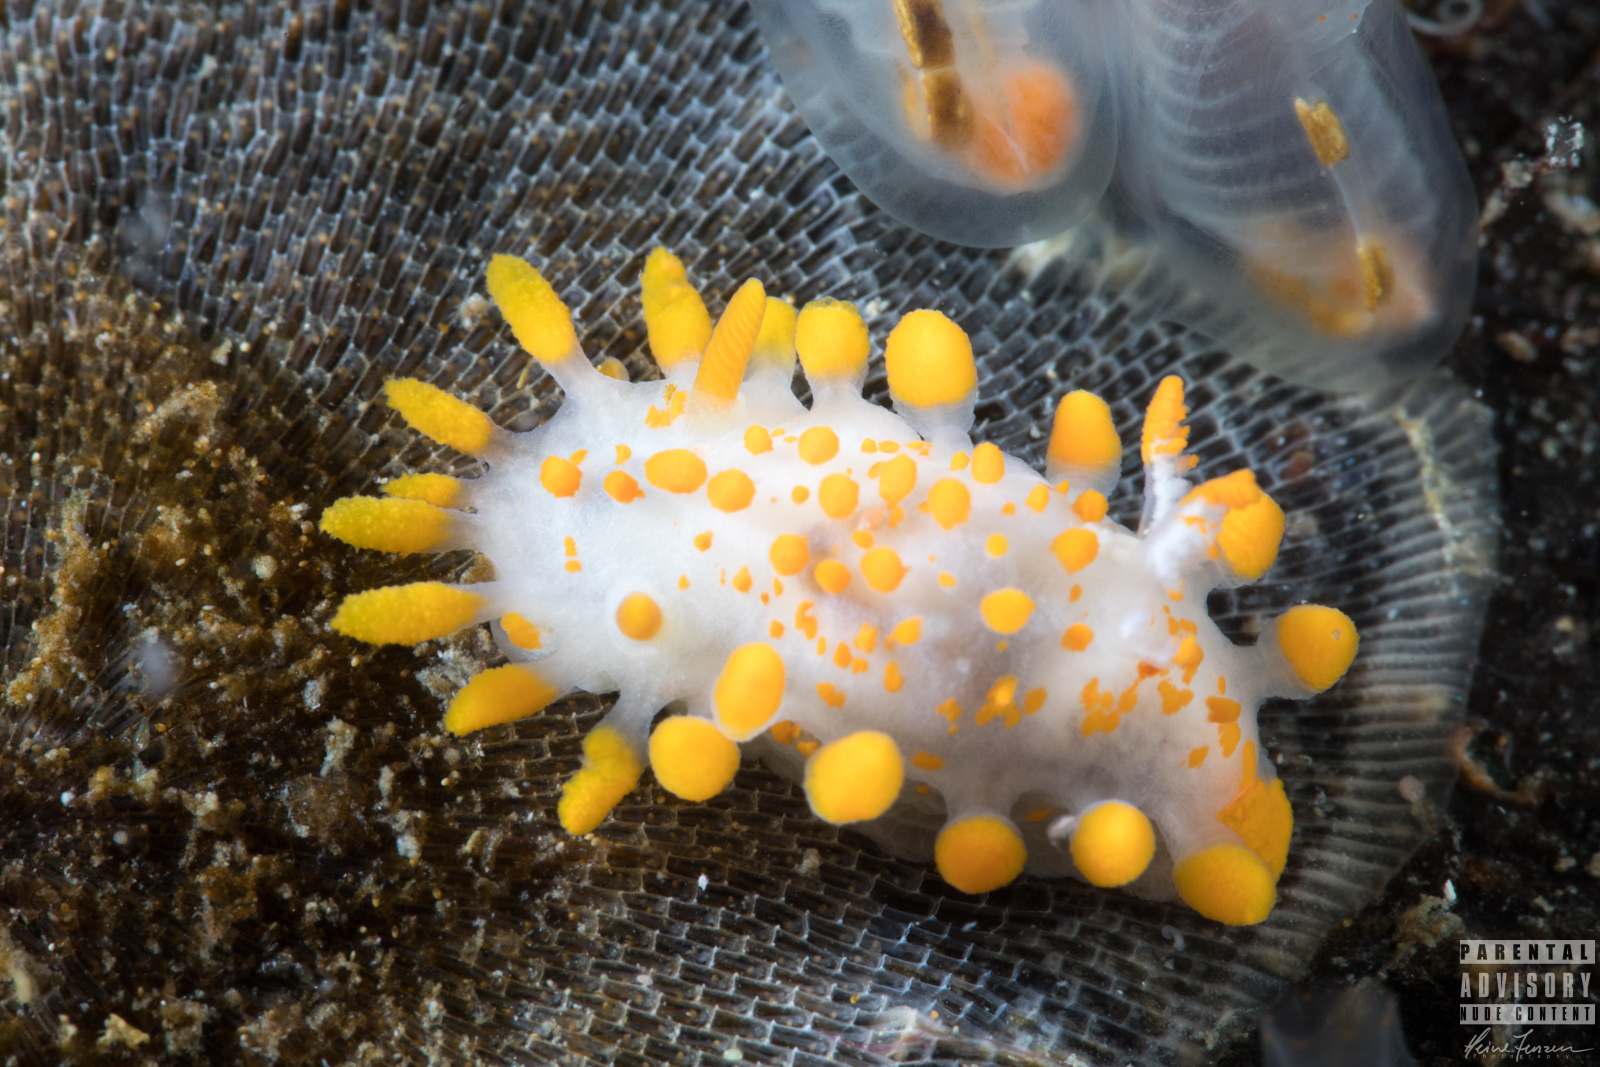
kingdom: Animalia
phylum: Mollusca
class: Gastropoda
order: Nudibranchia
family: Polyceridae
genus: Limacia
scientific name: Limacia clavigera
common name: Orange-clubbed sea slug
